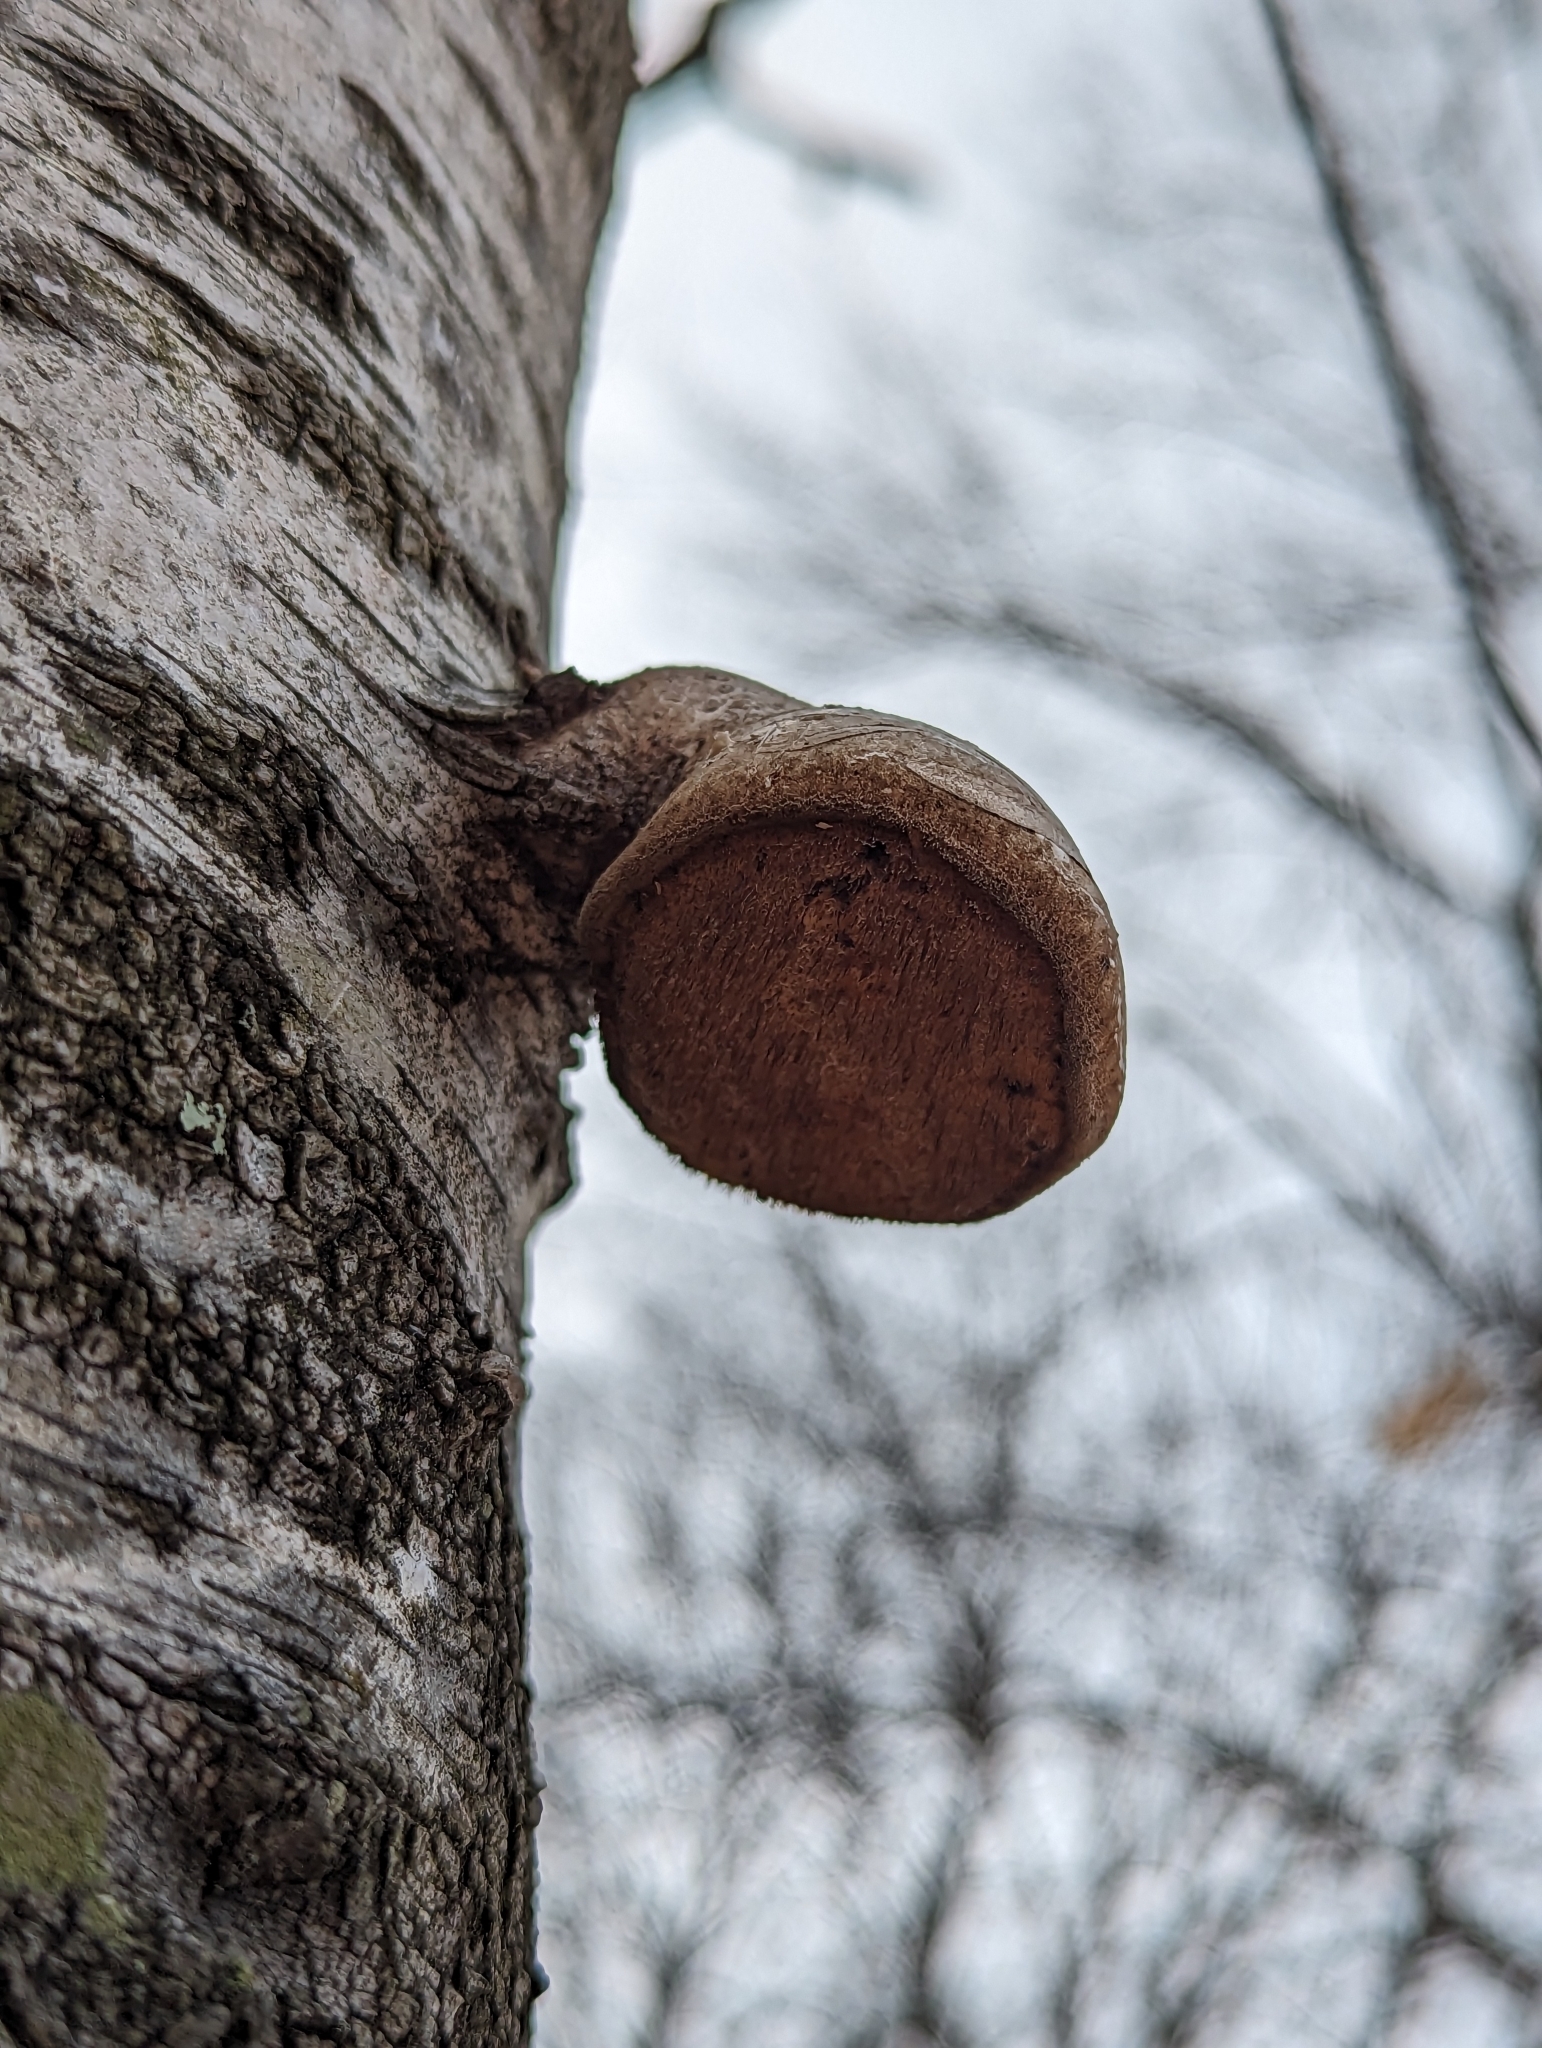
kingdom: Fungi
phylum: Basidiomycota
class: Agaricomycetes
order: Polyporales
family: Fomitopsidaceae
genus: Fomitopsis
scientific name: Fomitopsis betulina
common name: Birch polypore
